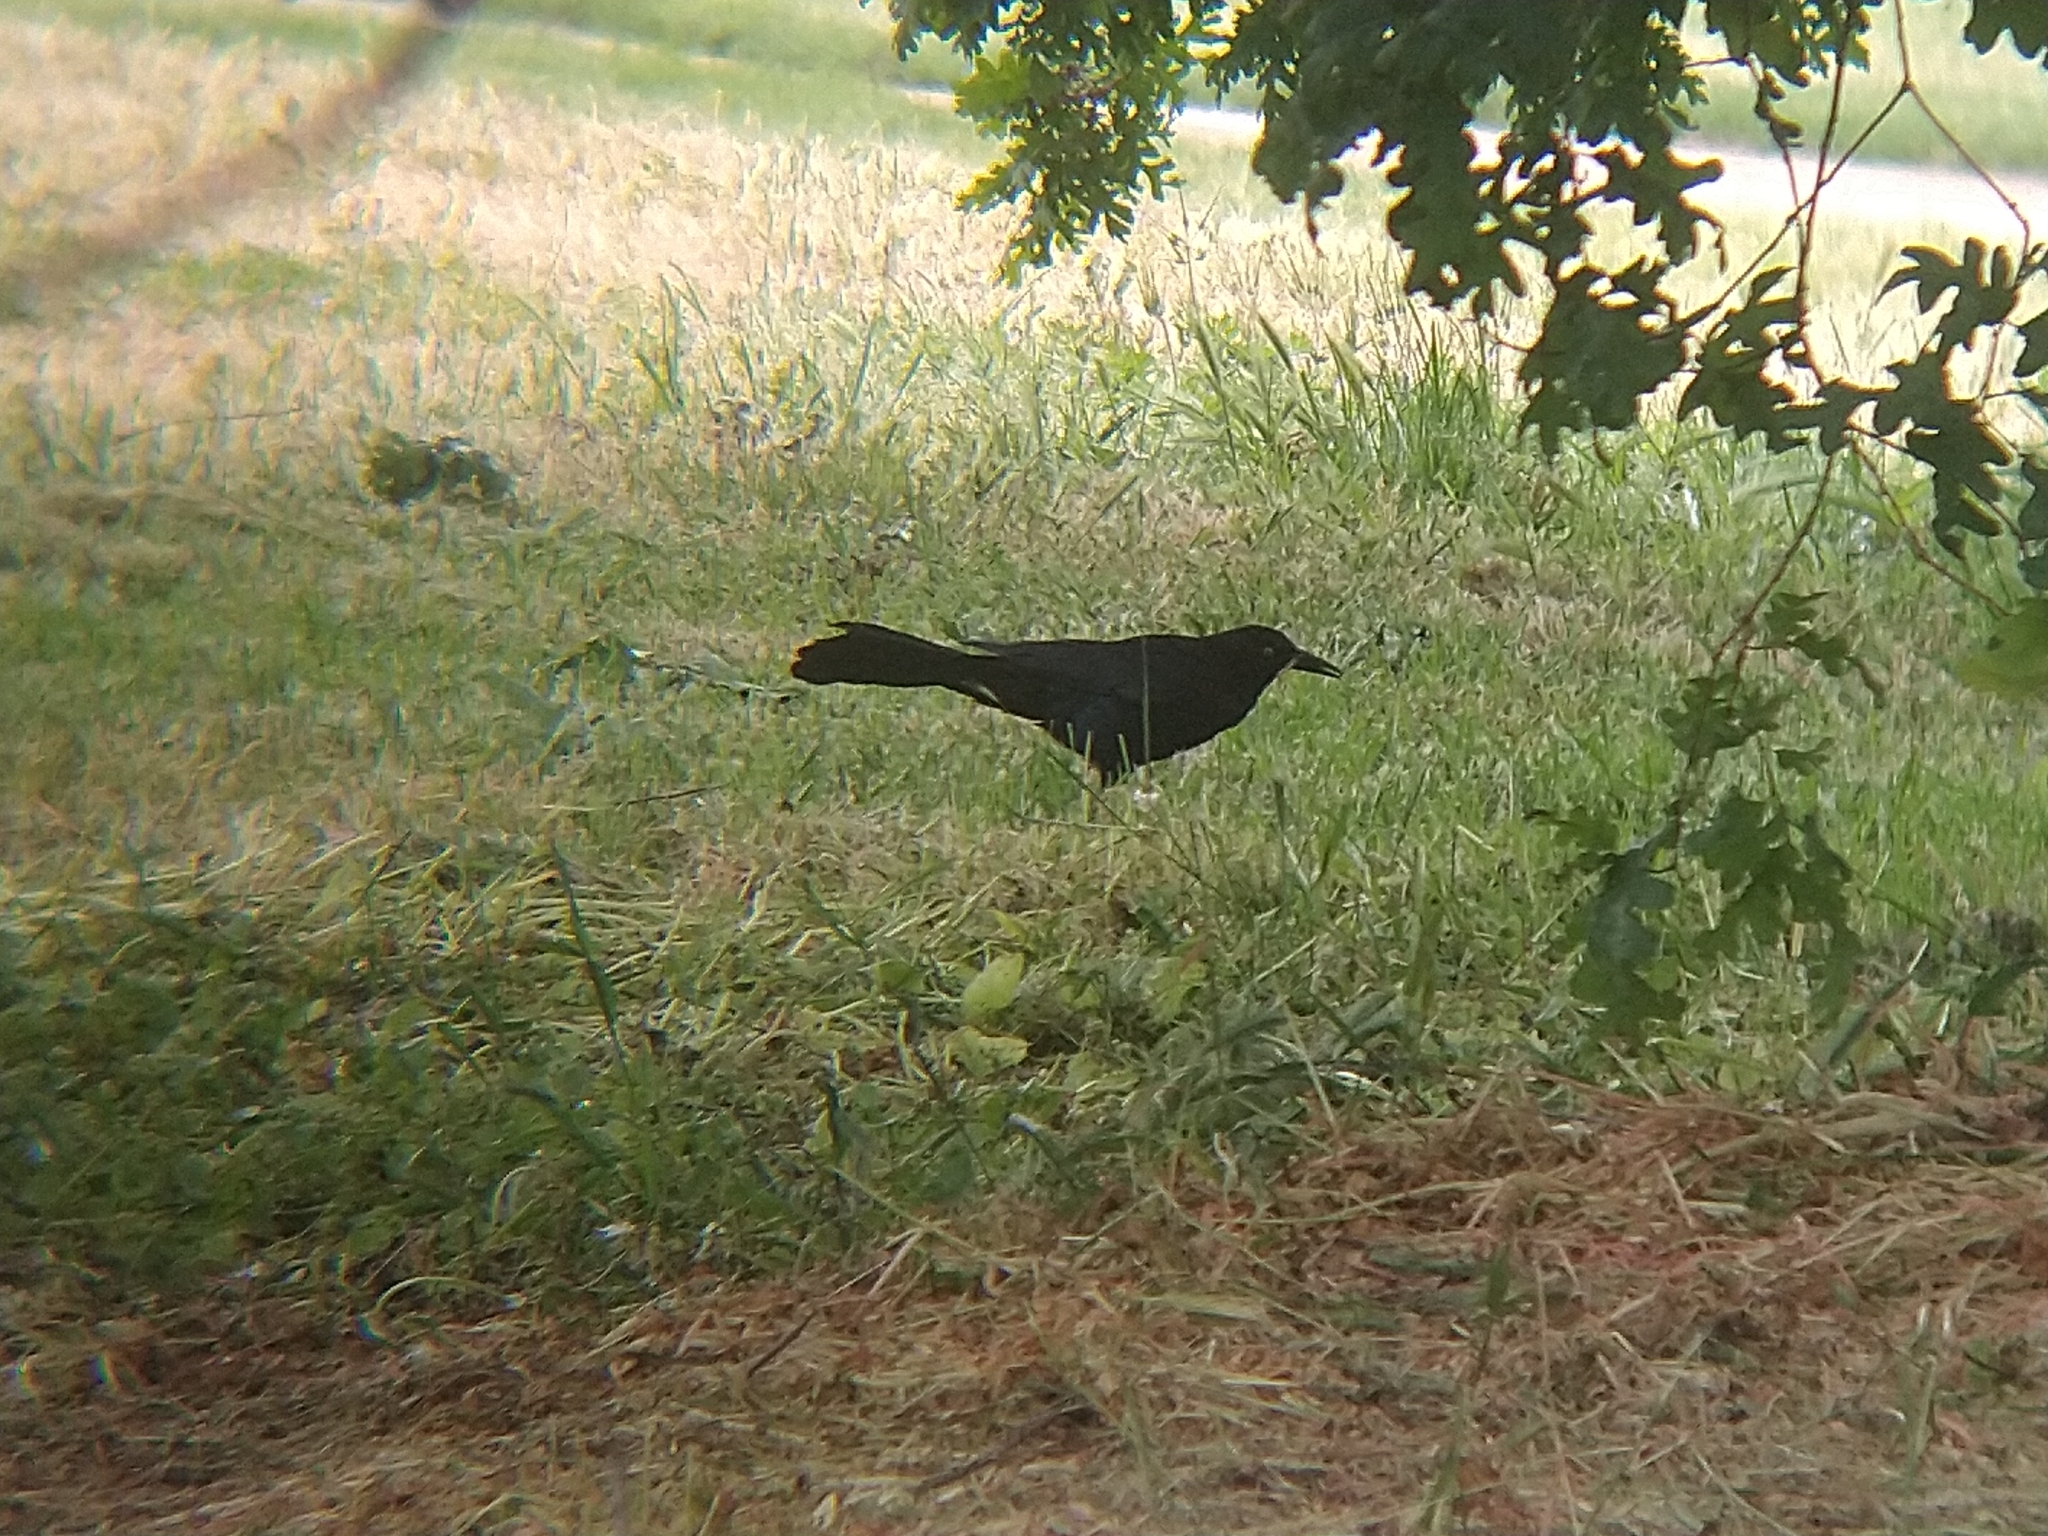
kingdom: Animalia
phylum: Chordata
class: Aves
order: Passeriformes
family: Icteridae
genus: Quiscalus
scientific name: Quiscalus mexicanus
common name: Great-tailed grackle
